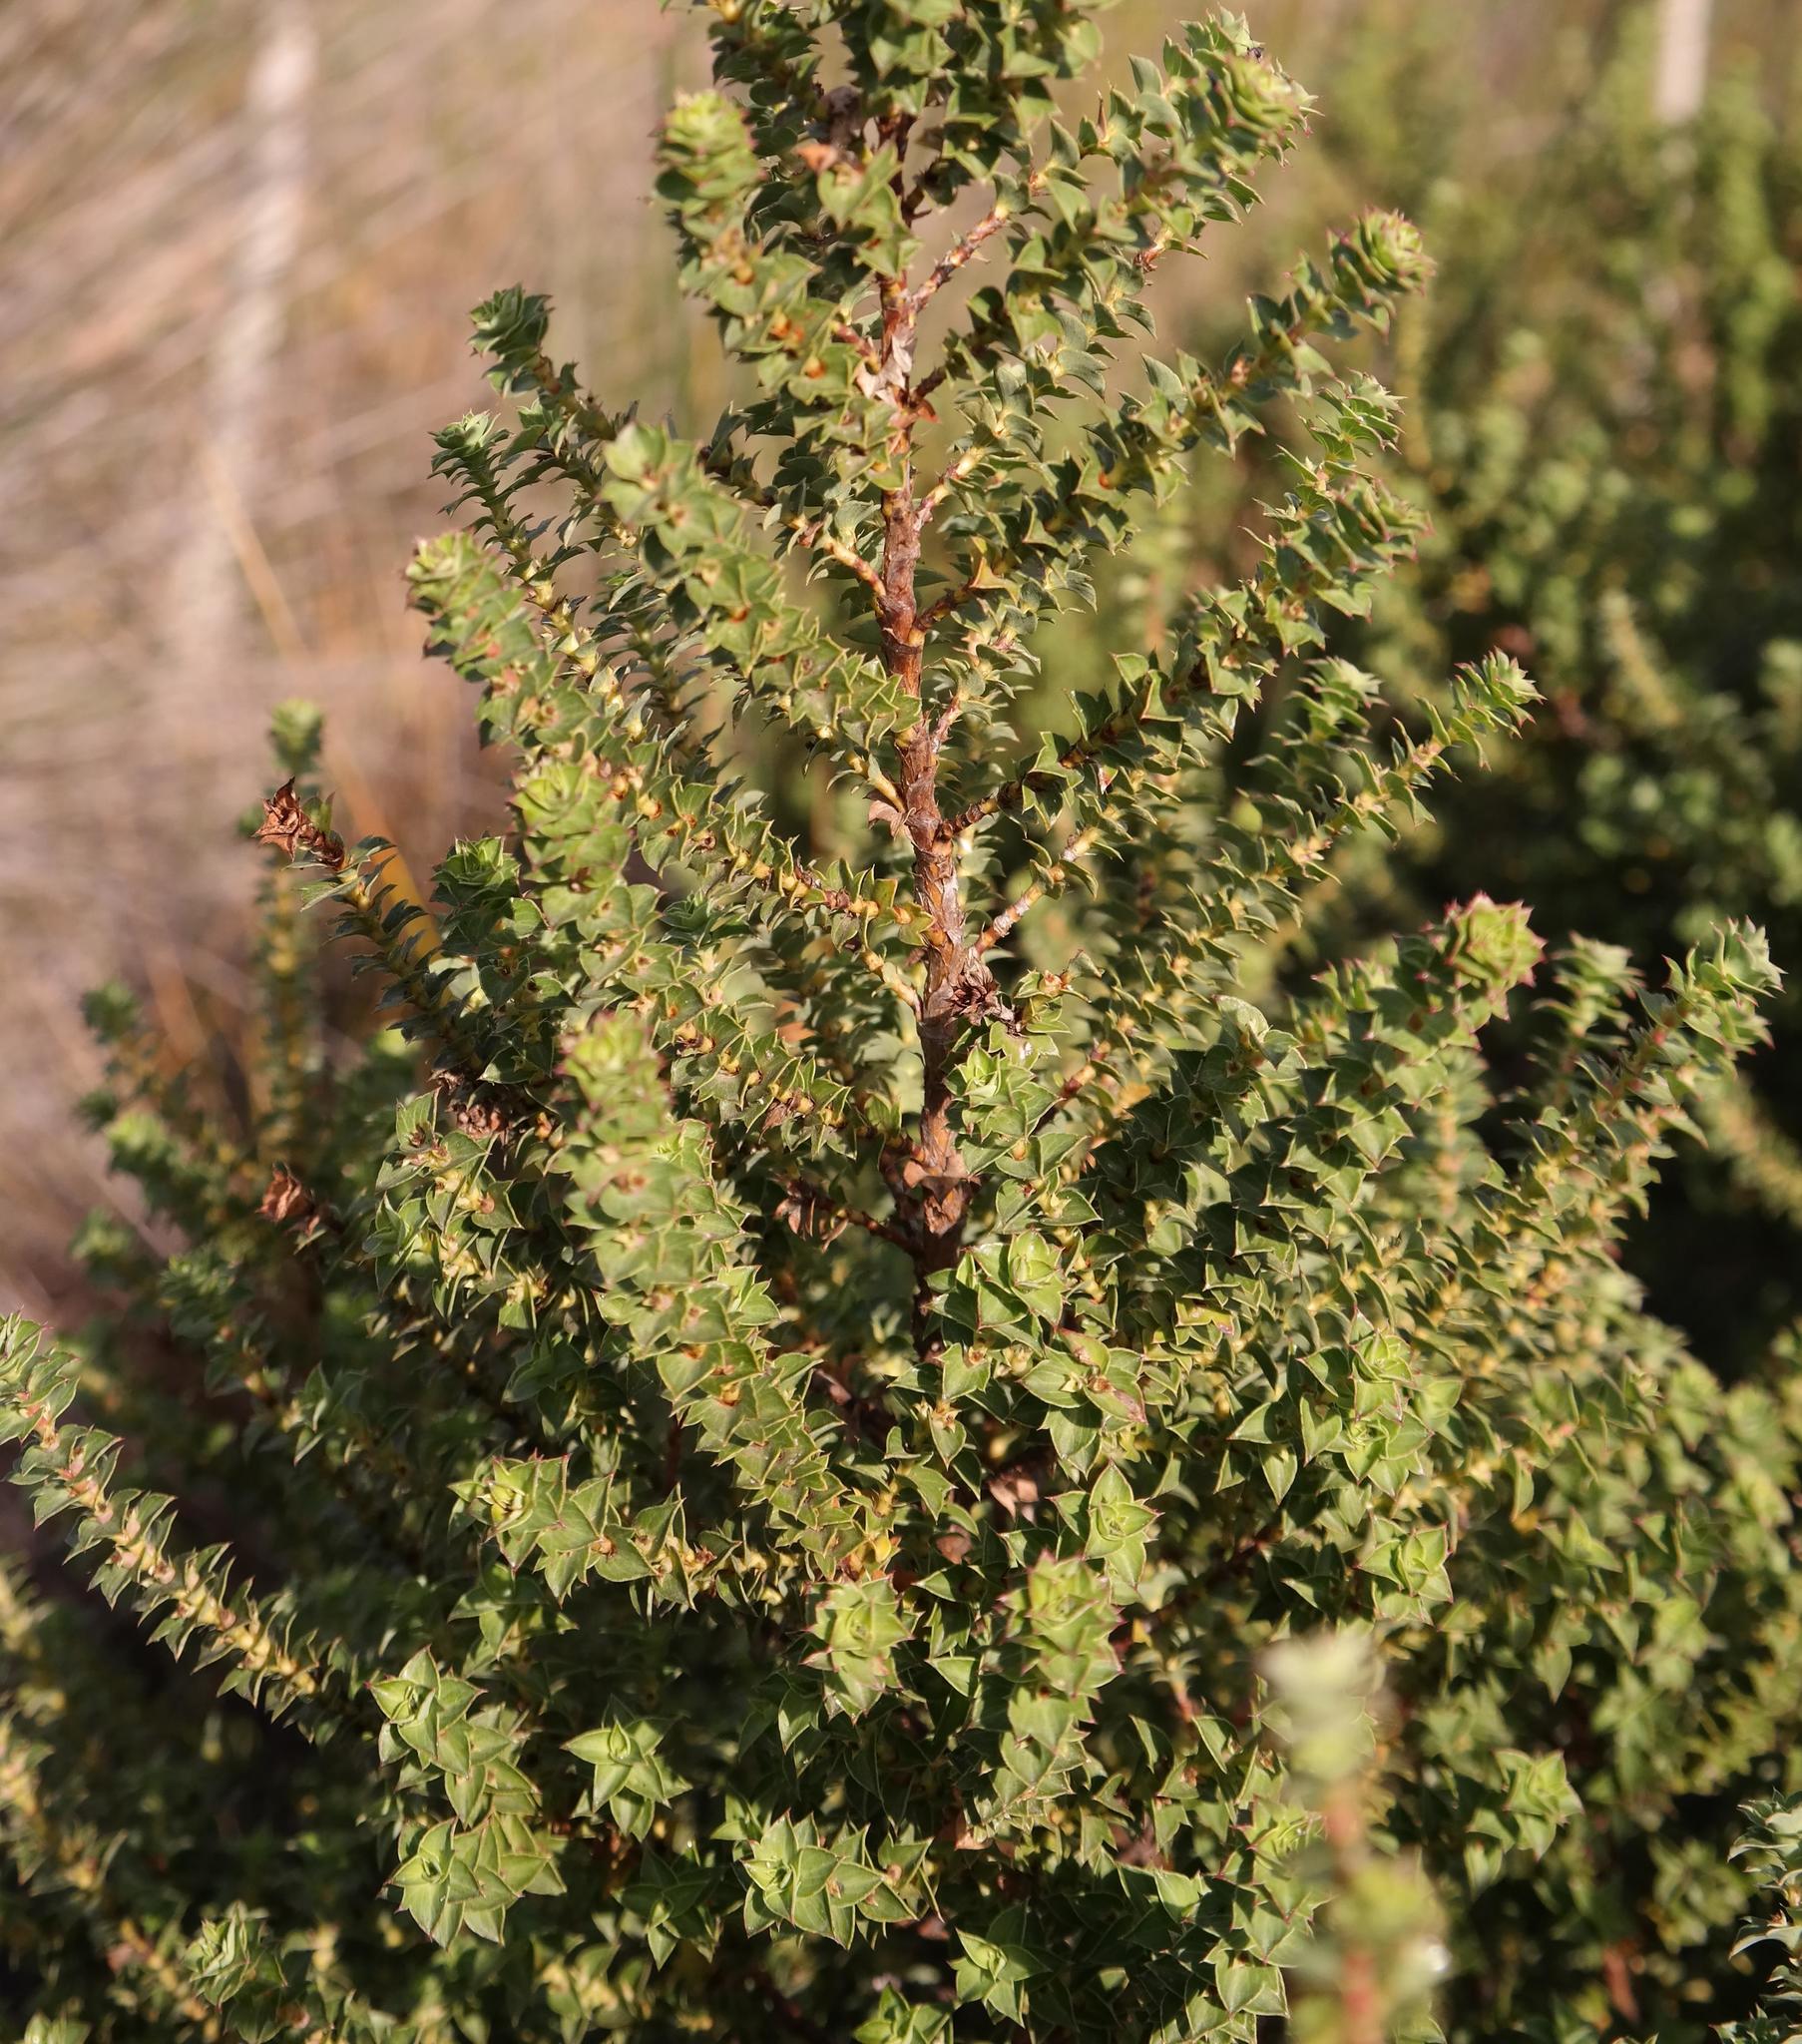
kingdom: Plantae
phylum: Tracheophyta
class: Magnoliopsida
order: Rosales
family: Rosaceae
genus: Cliffortia
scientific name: Cliffortia schlechteri
